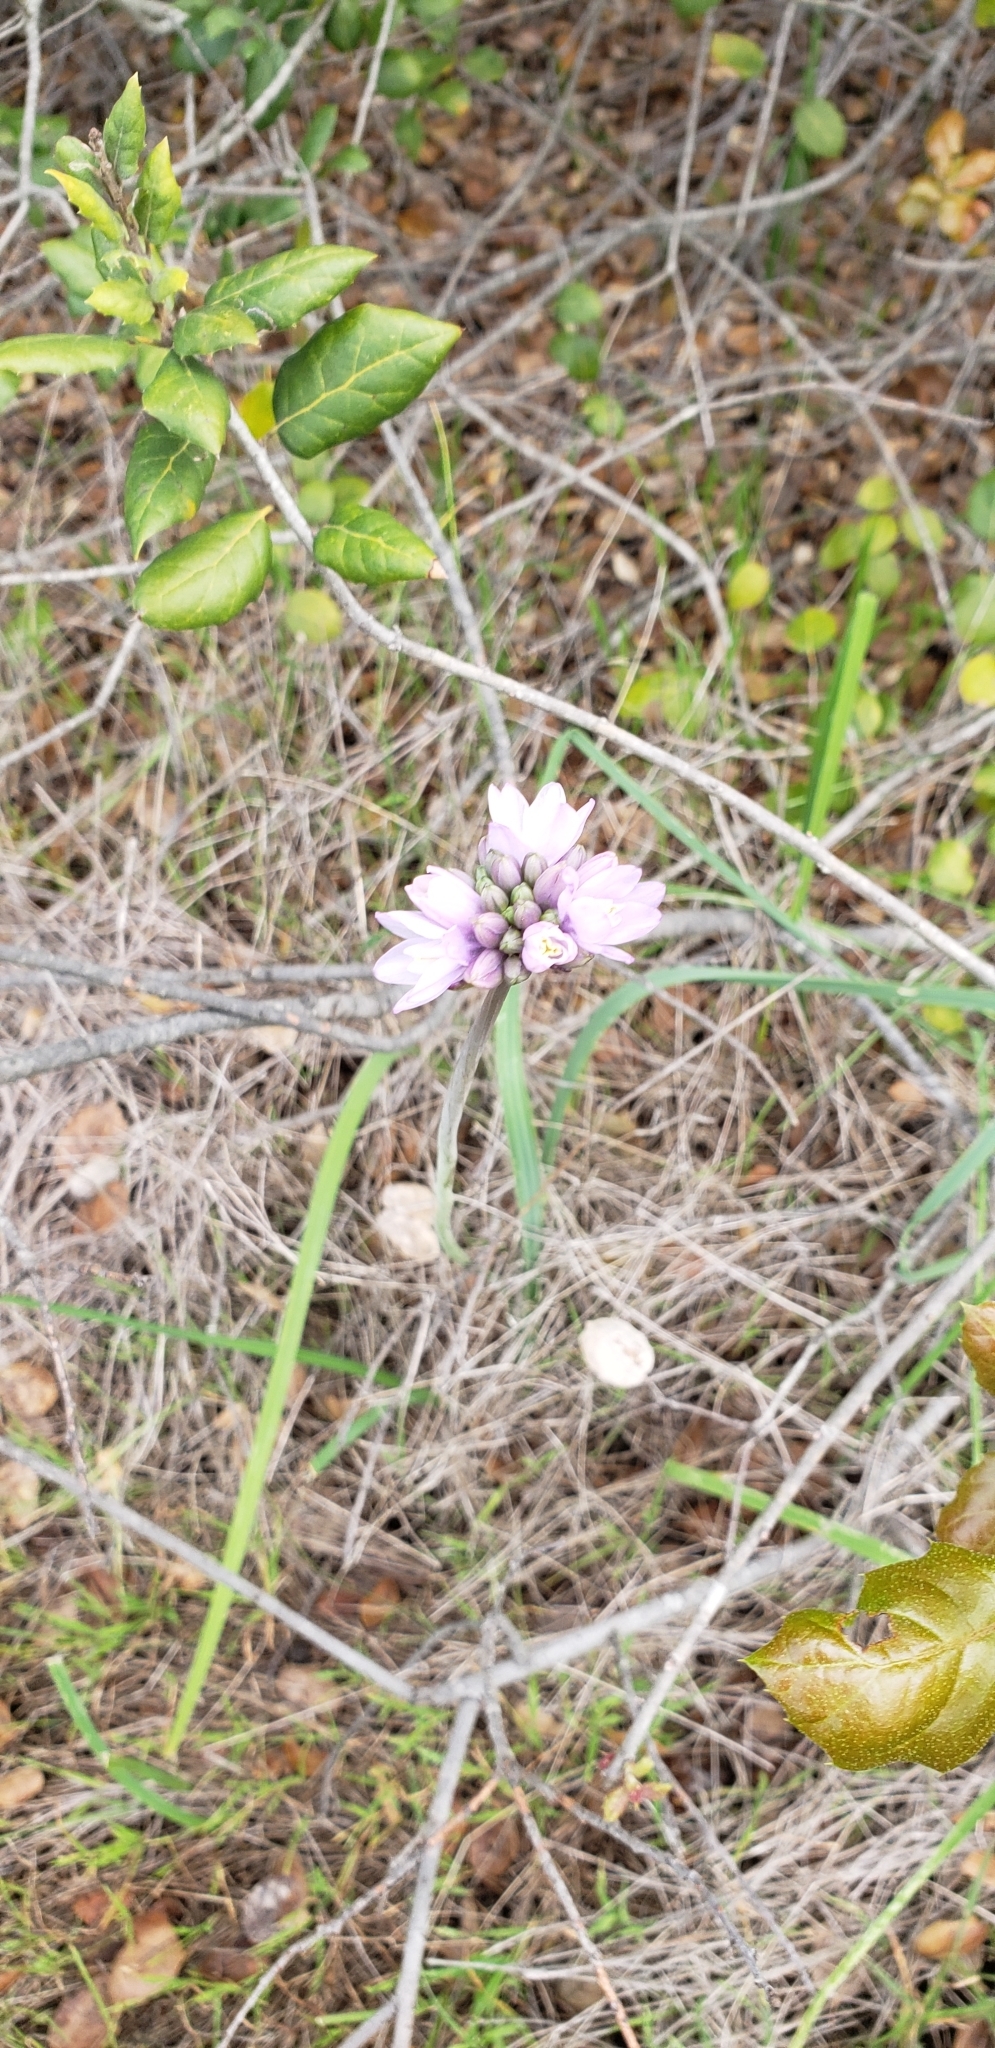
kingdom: Plantae
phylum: Tracheophyta
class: Liliopsida
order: Asparagales
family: Asparagaceae
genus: Dipterostemon
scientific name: Dipterostemon capitatus
